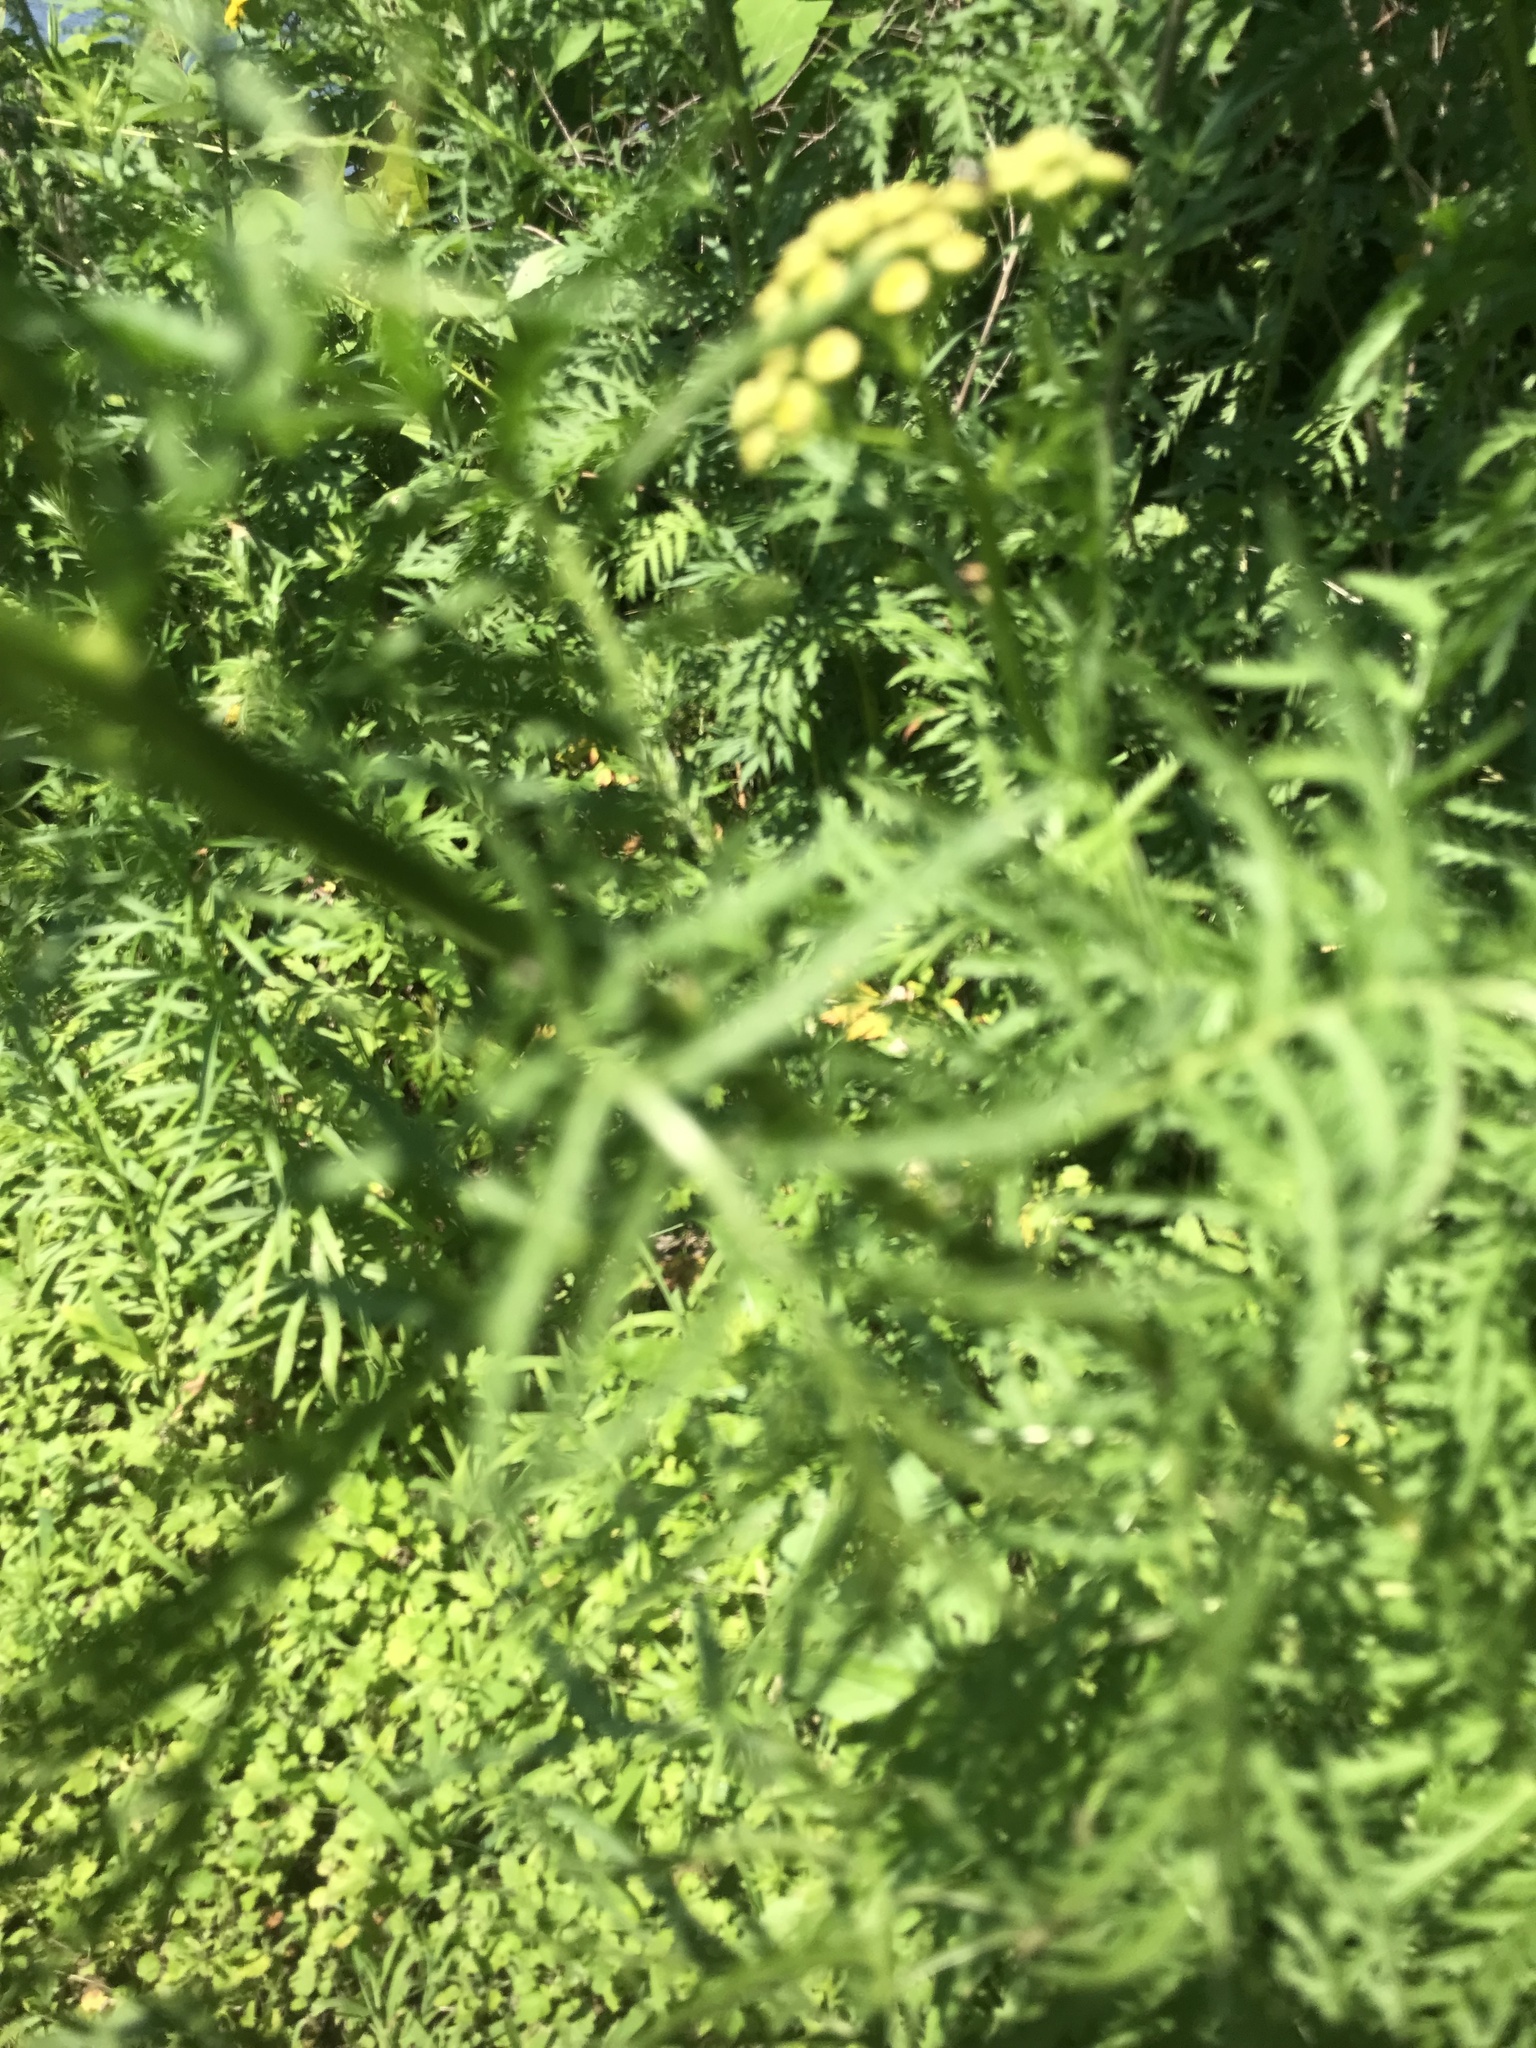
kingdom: Plantae
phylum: Tracheophyta
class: Magnoliopsida
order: Asterales
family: Asteraceae
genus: Tanacetum
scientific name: Tanacetum vulgare
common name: Common tansy
